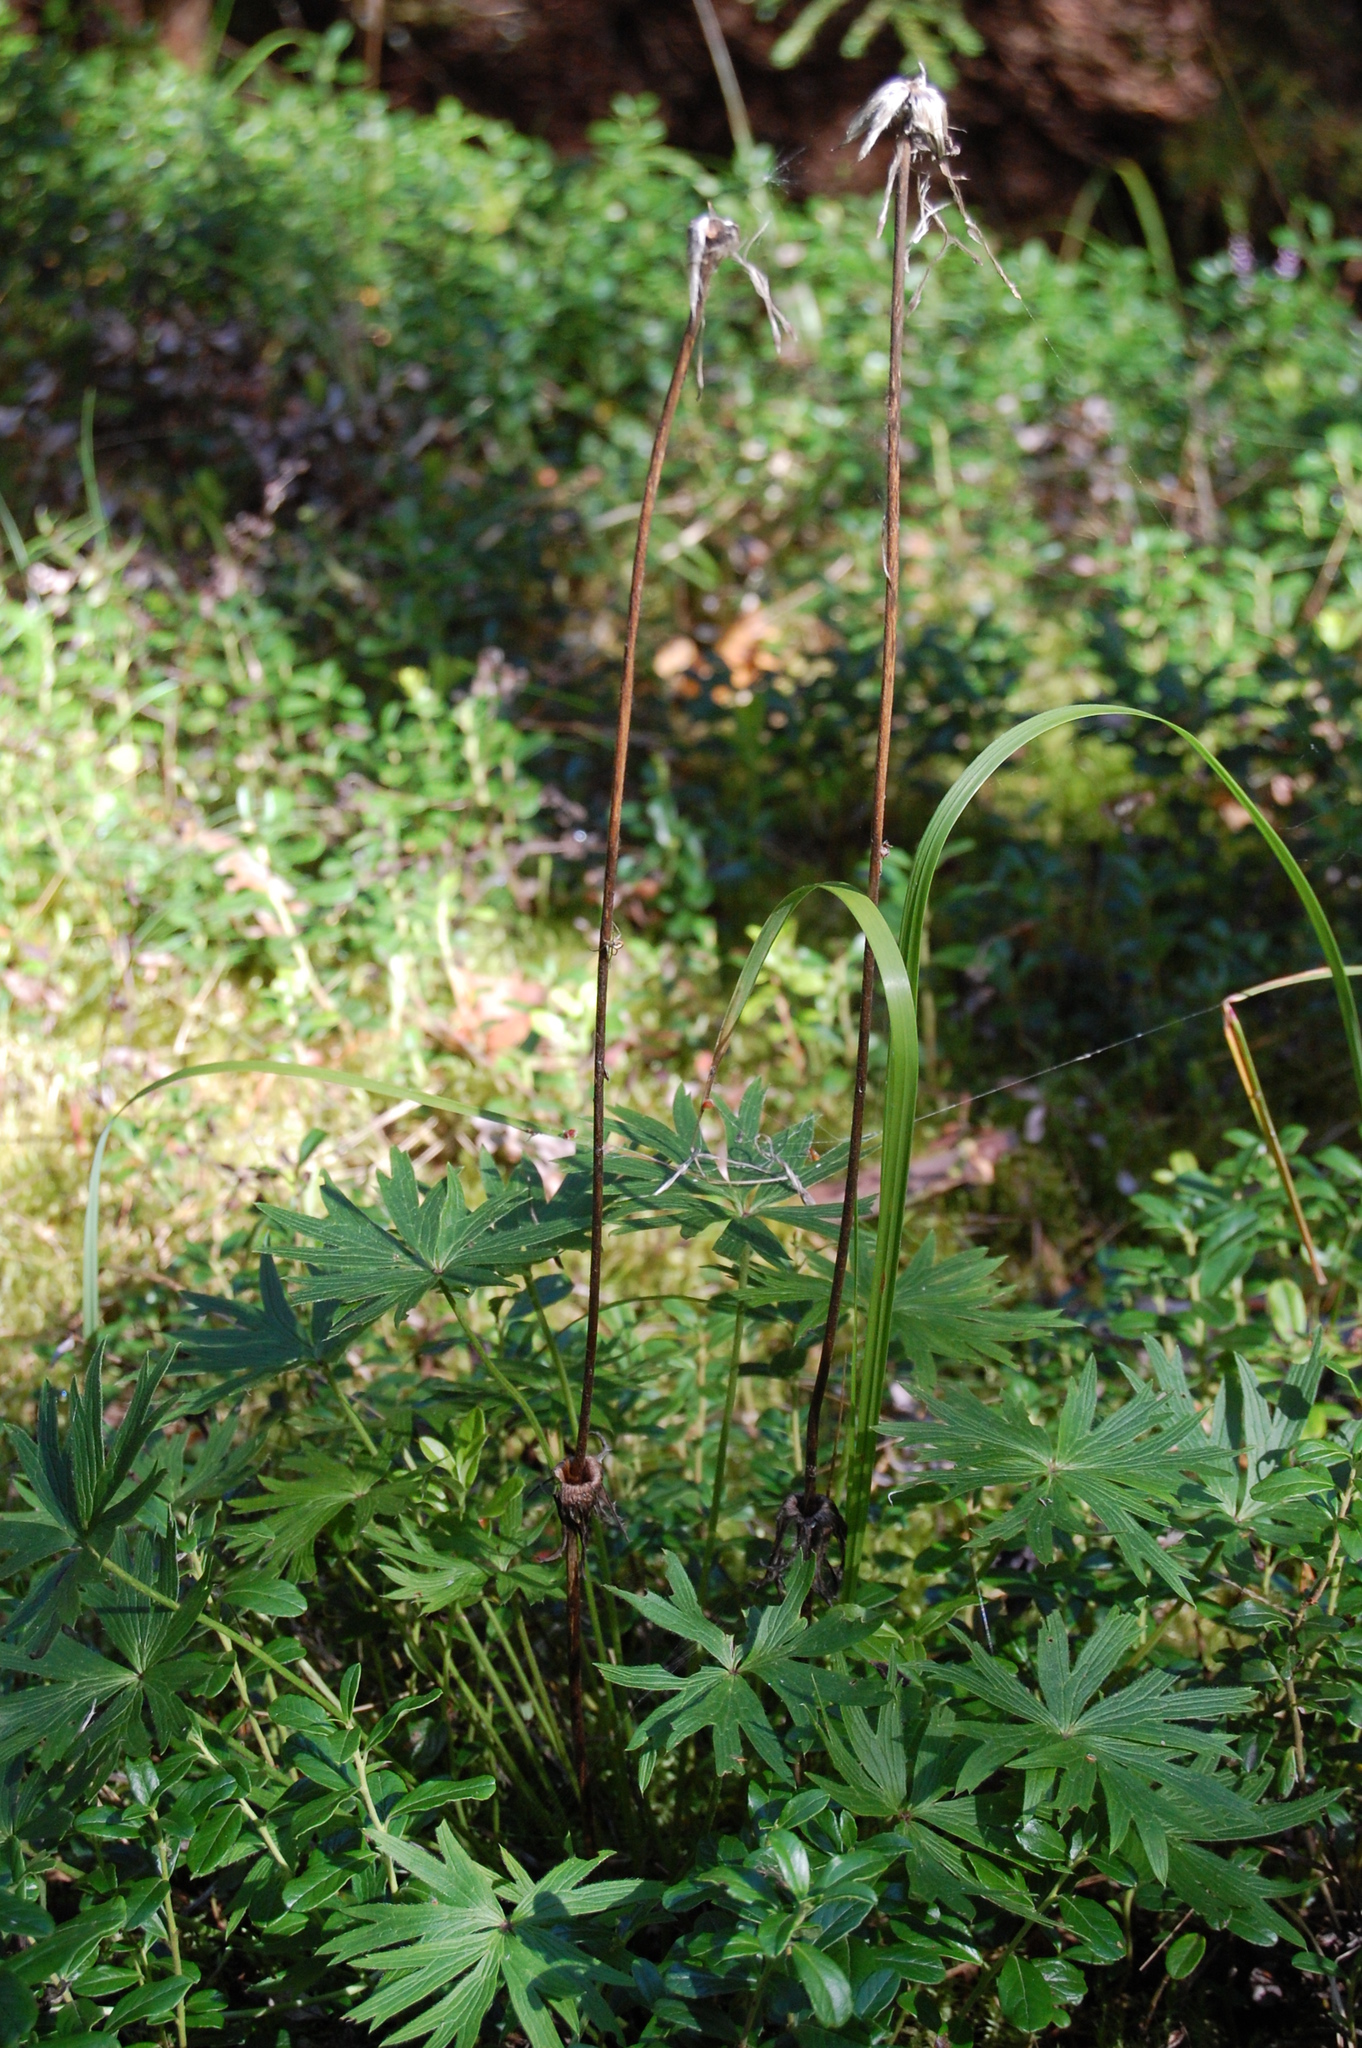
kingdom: Plantae
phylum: Tracheophyta
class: Magnoliopsida
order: Ranunculales
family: Ranunculaceae
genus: Pulsatilla
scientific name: Pulsatilla patens
